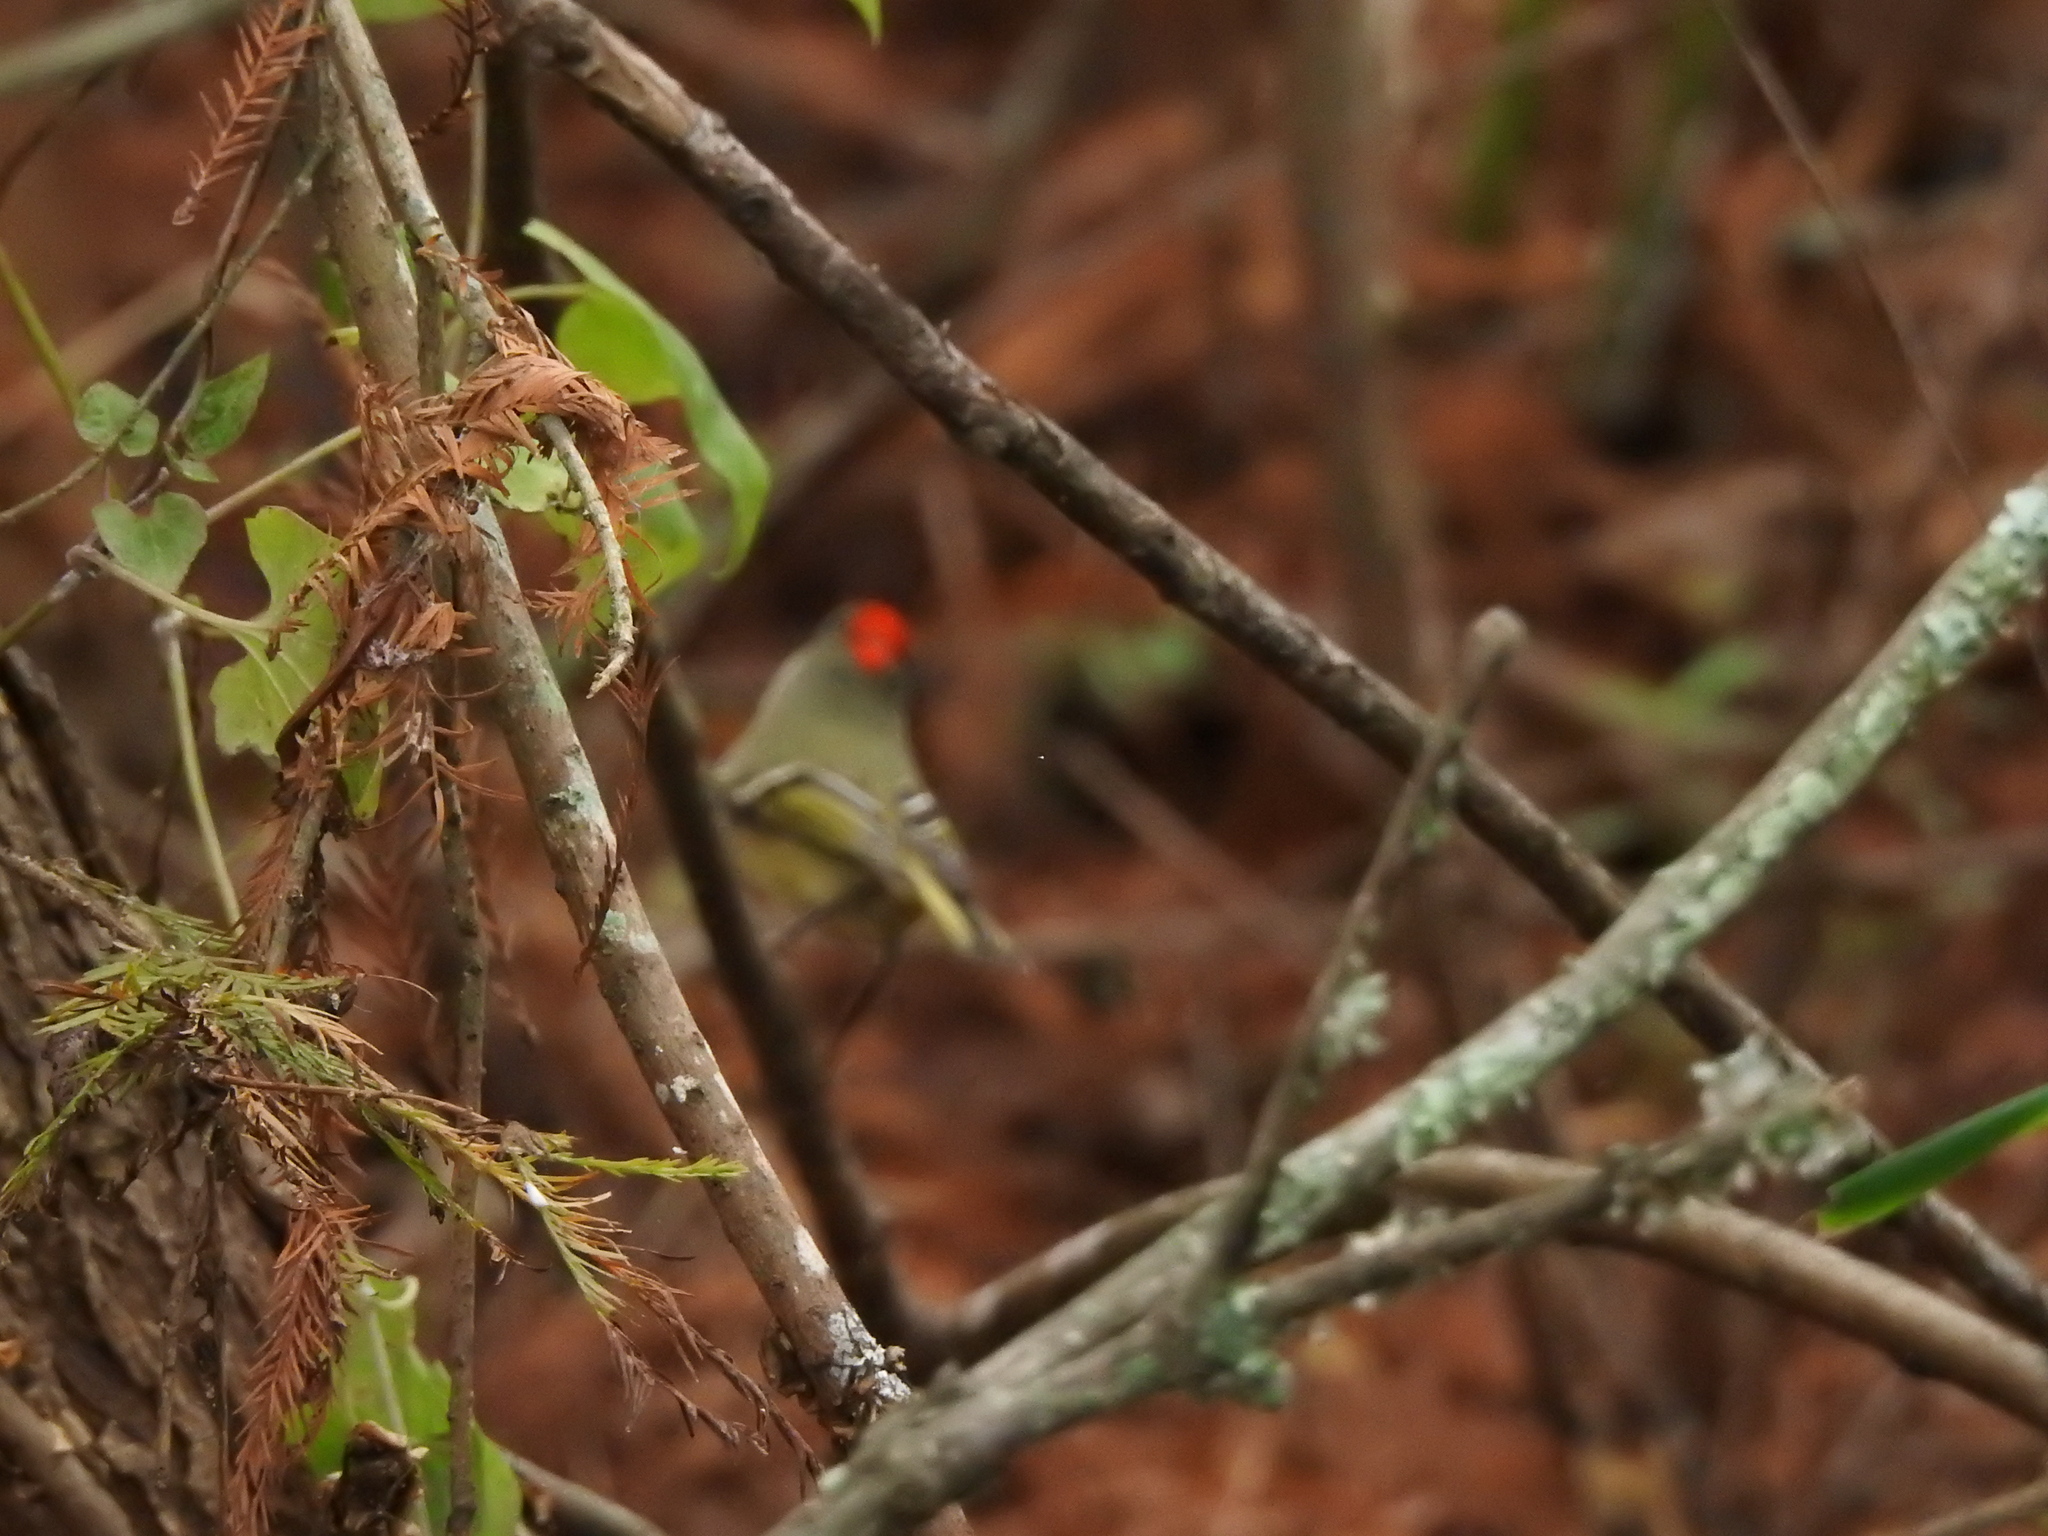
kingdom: Animalia
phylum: Chordata
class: Aves
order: Passeriformes
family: Regulidae
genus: Regulus
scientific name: Regulus calendula
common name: Ruby-crowned kinglet
